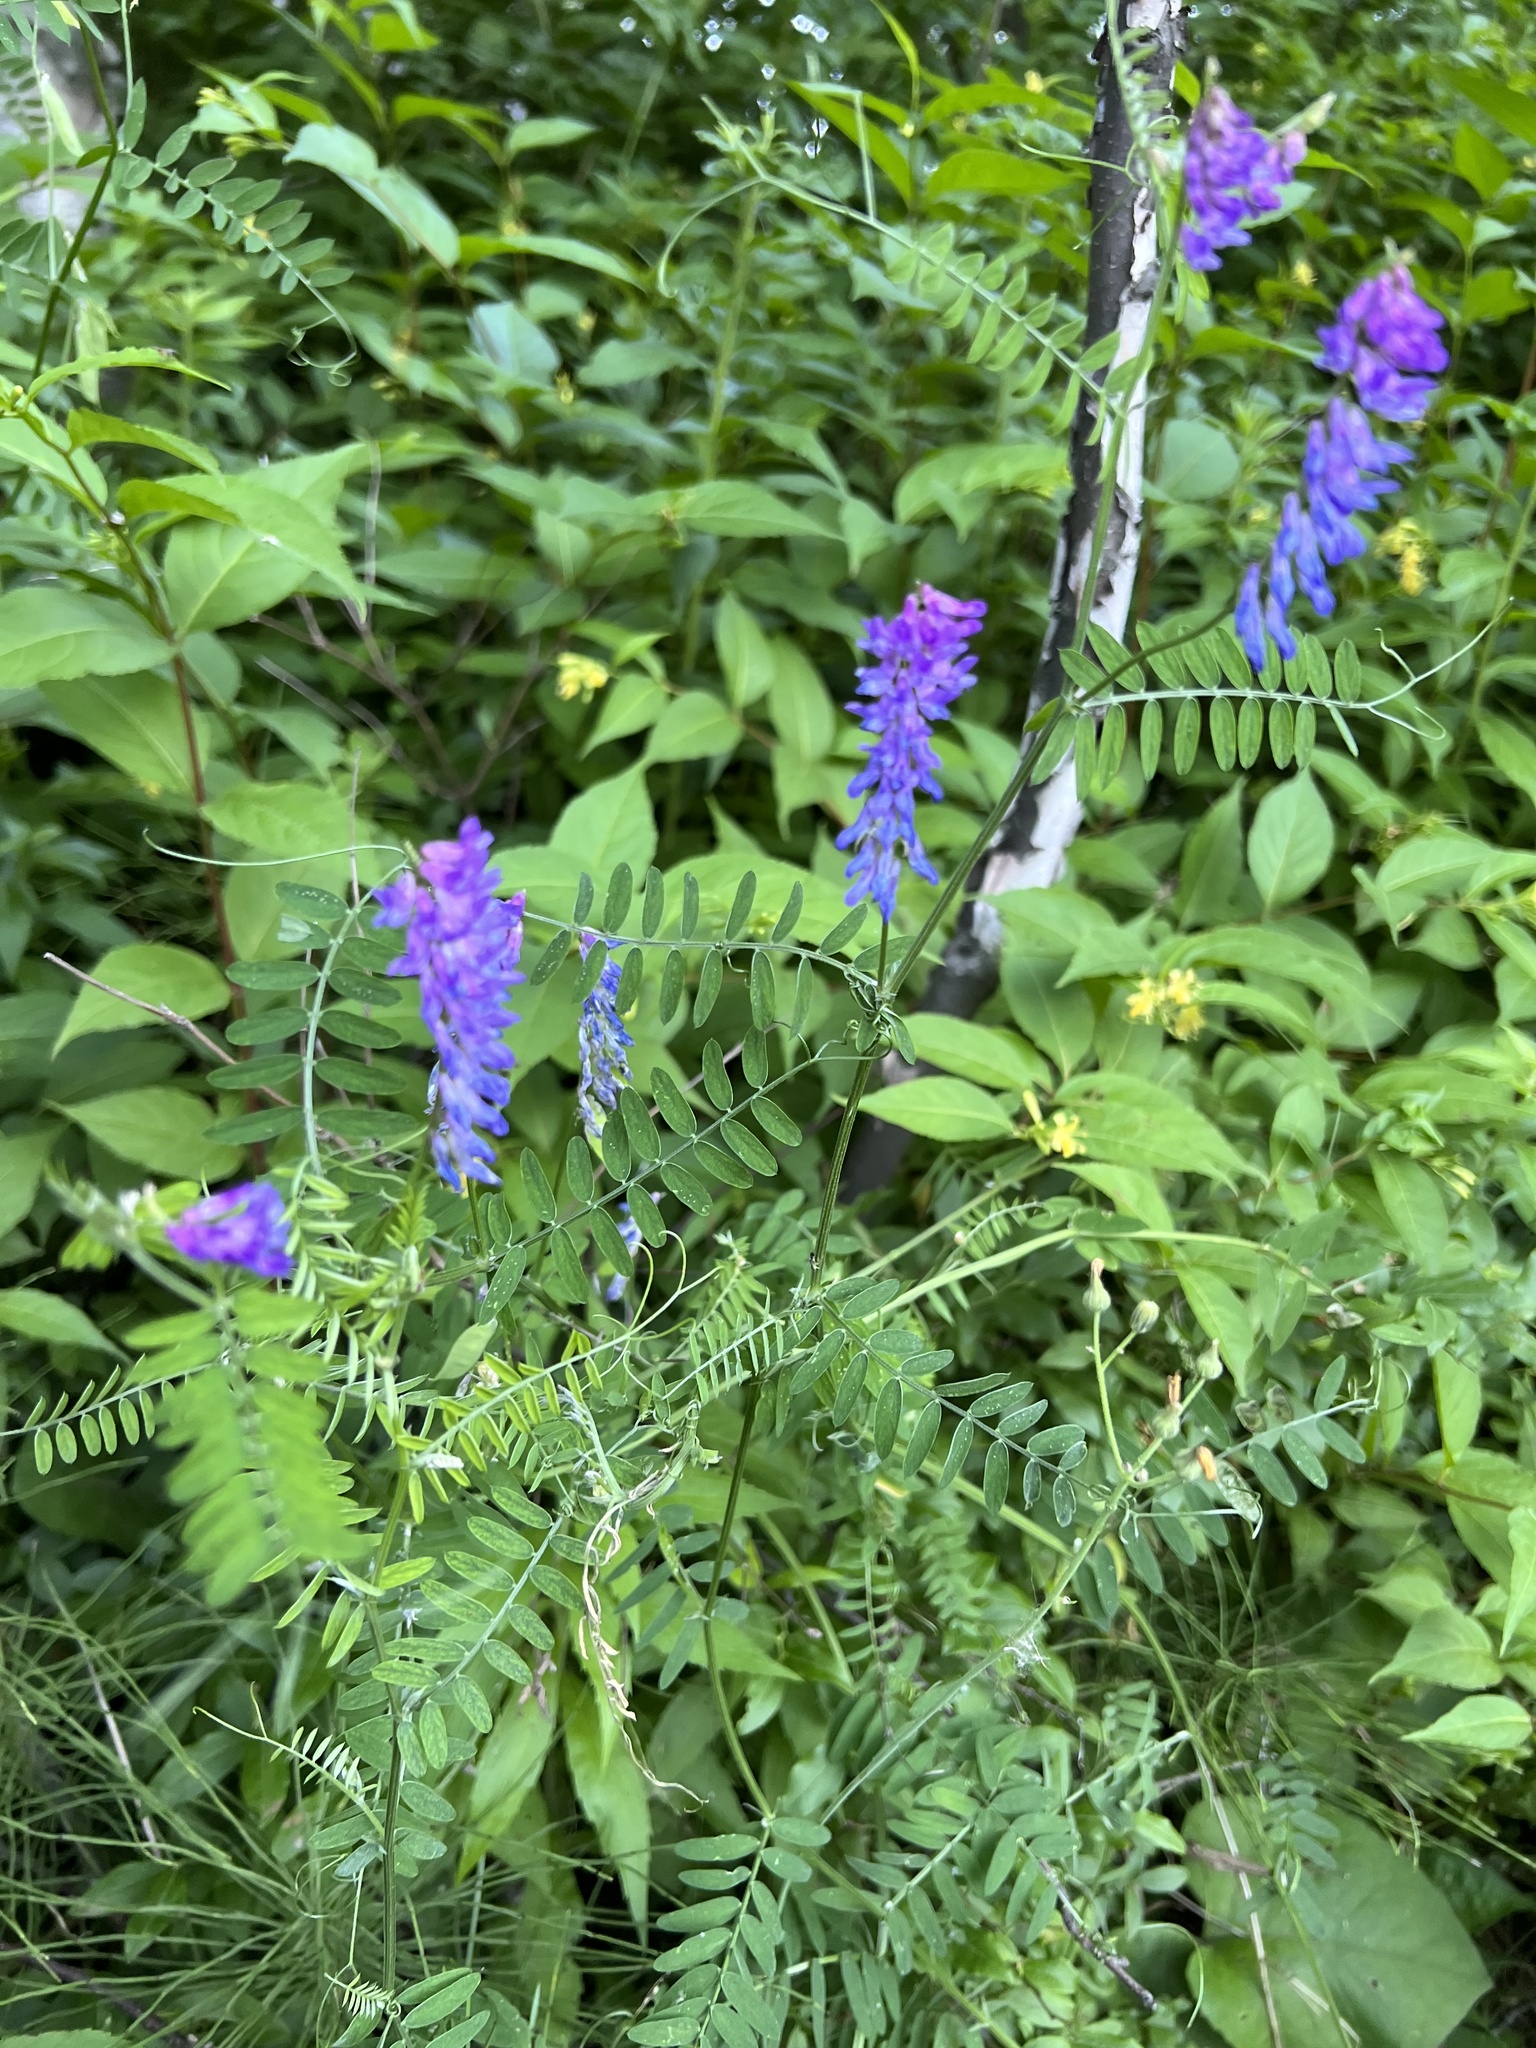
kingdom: Plantae
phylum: Tracheophyta
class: Magnoliopsida
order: Fabales
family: Fabaceae
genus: Vicia
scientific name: Vicia cracca
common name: Bird vetch
